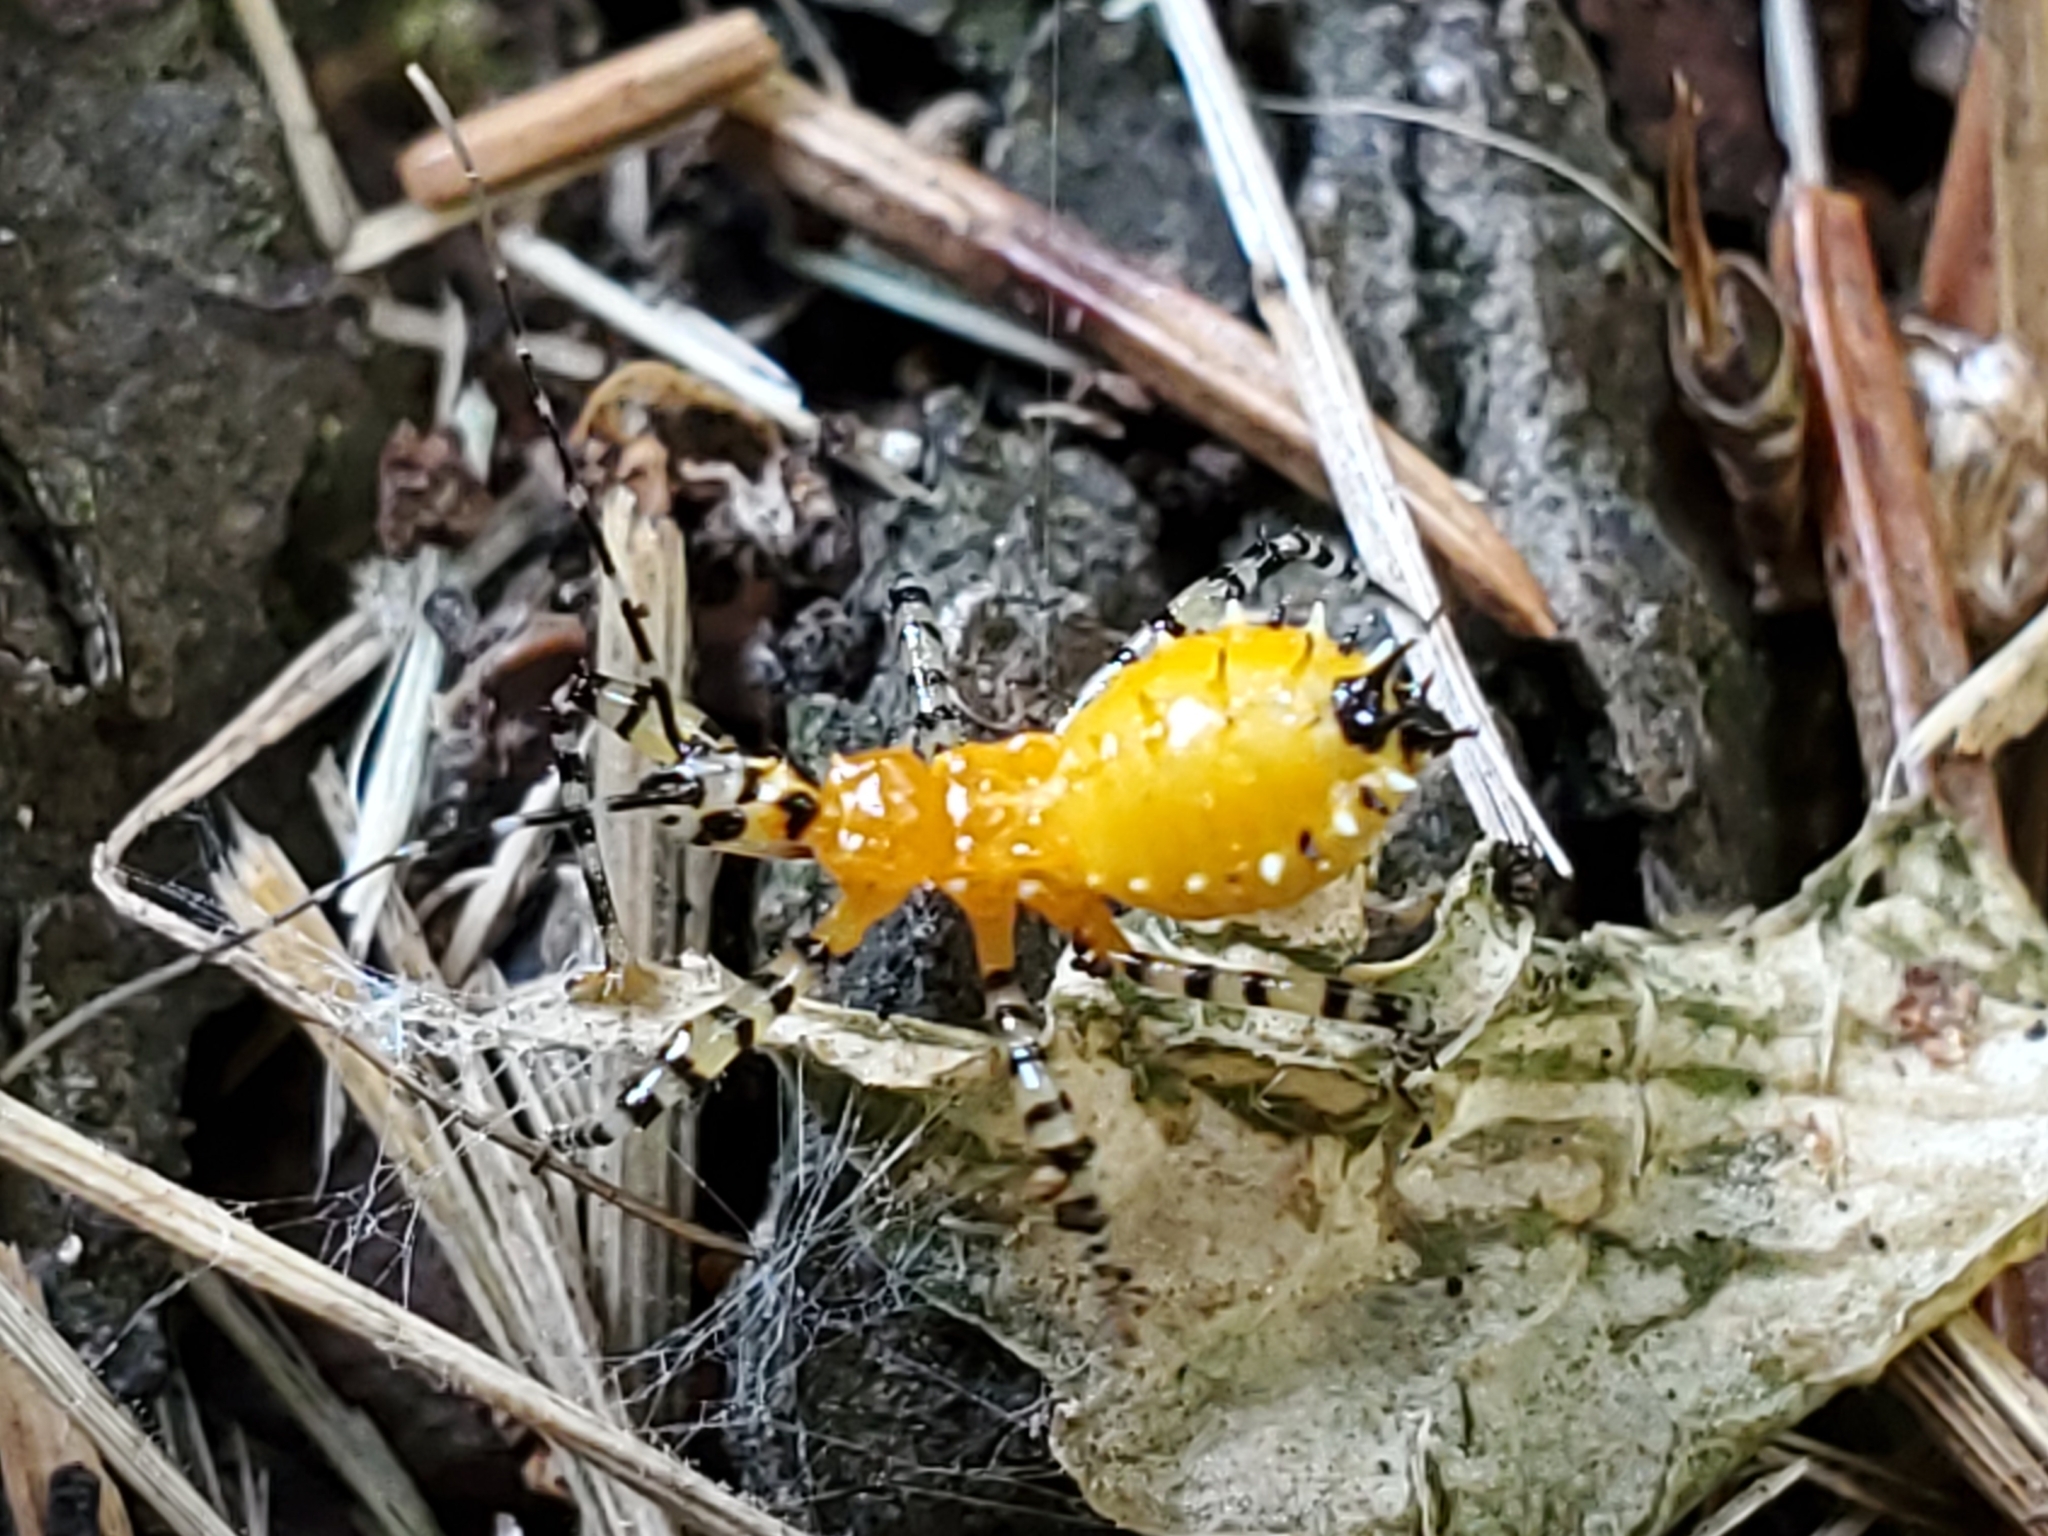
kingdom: Animalia
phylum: Arthropoda
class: Insecta
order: Hemiptera
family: Reduviidae
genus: Pselliopus
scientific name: Pselliopus barberi
